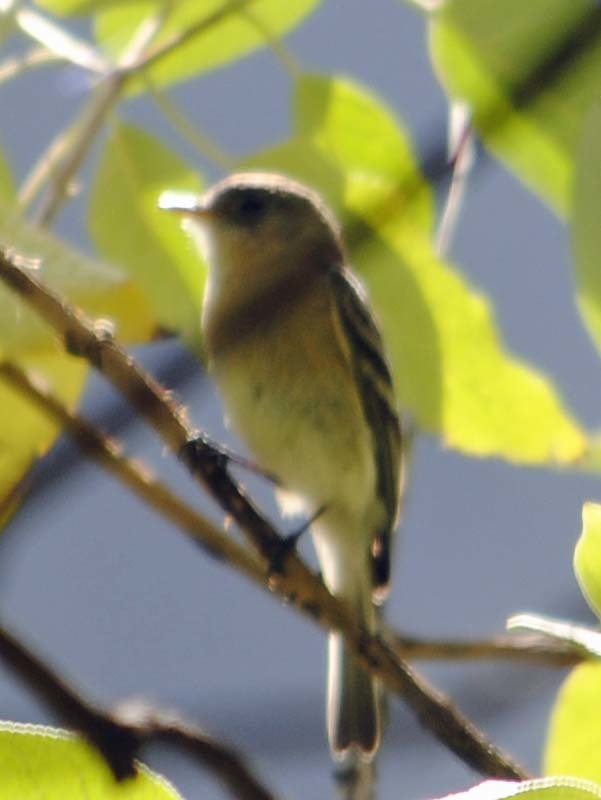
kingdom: Animalia
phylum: Chordata
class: Aves
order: Passeriformes
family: Tyrannidae
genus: Empidonax
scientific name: Empidonax fulvifrons
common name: Buff-breasted flycatcher
